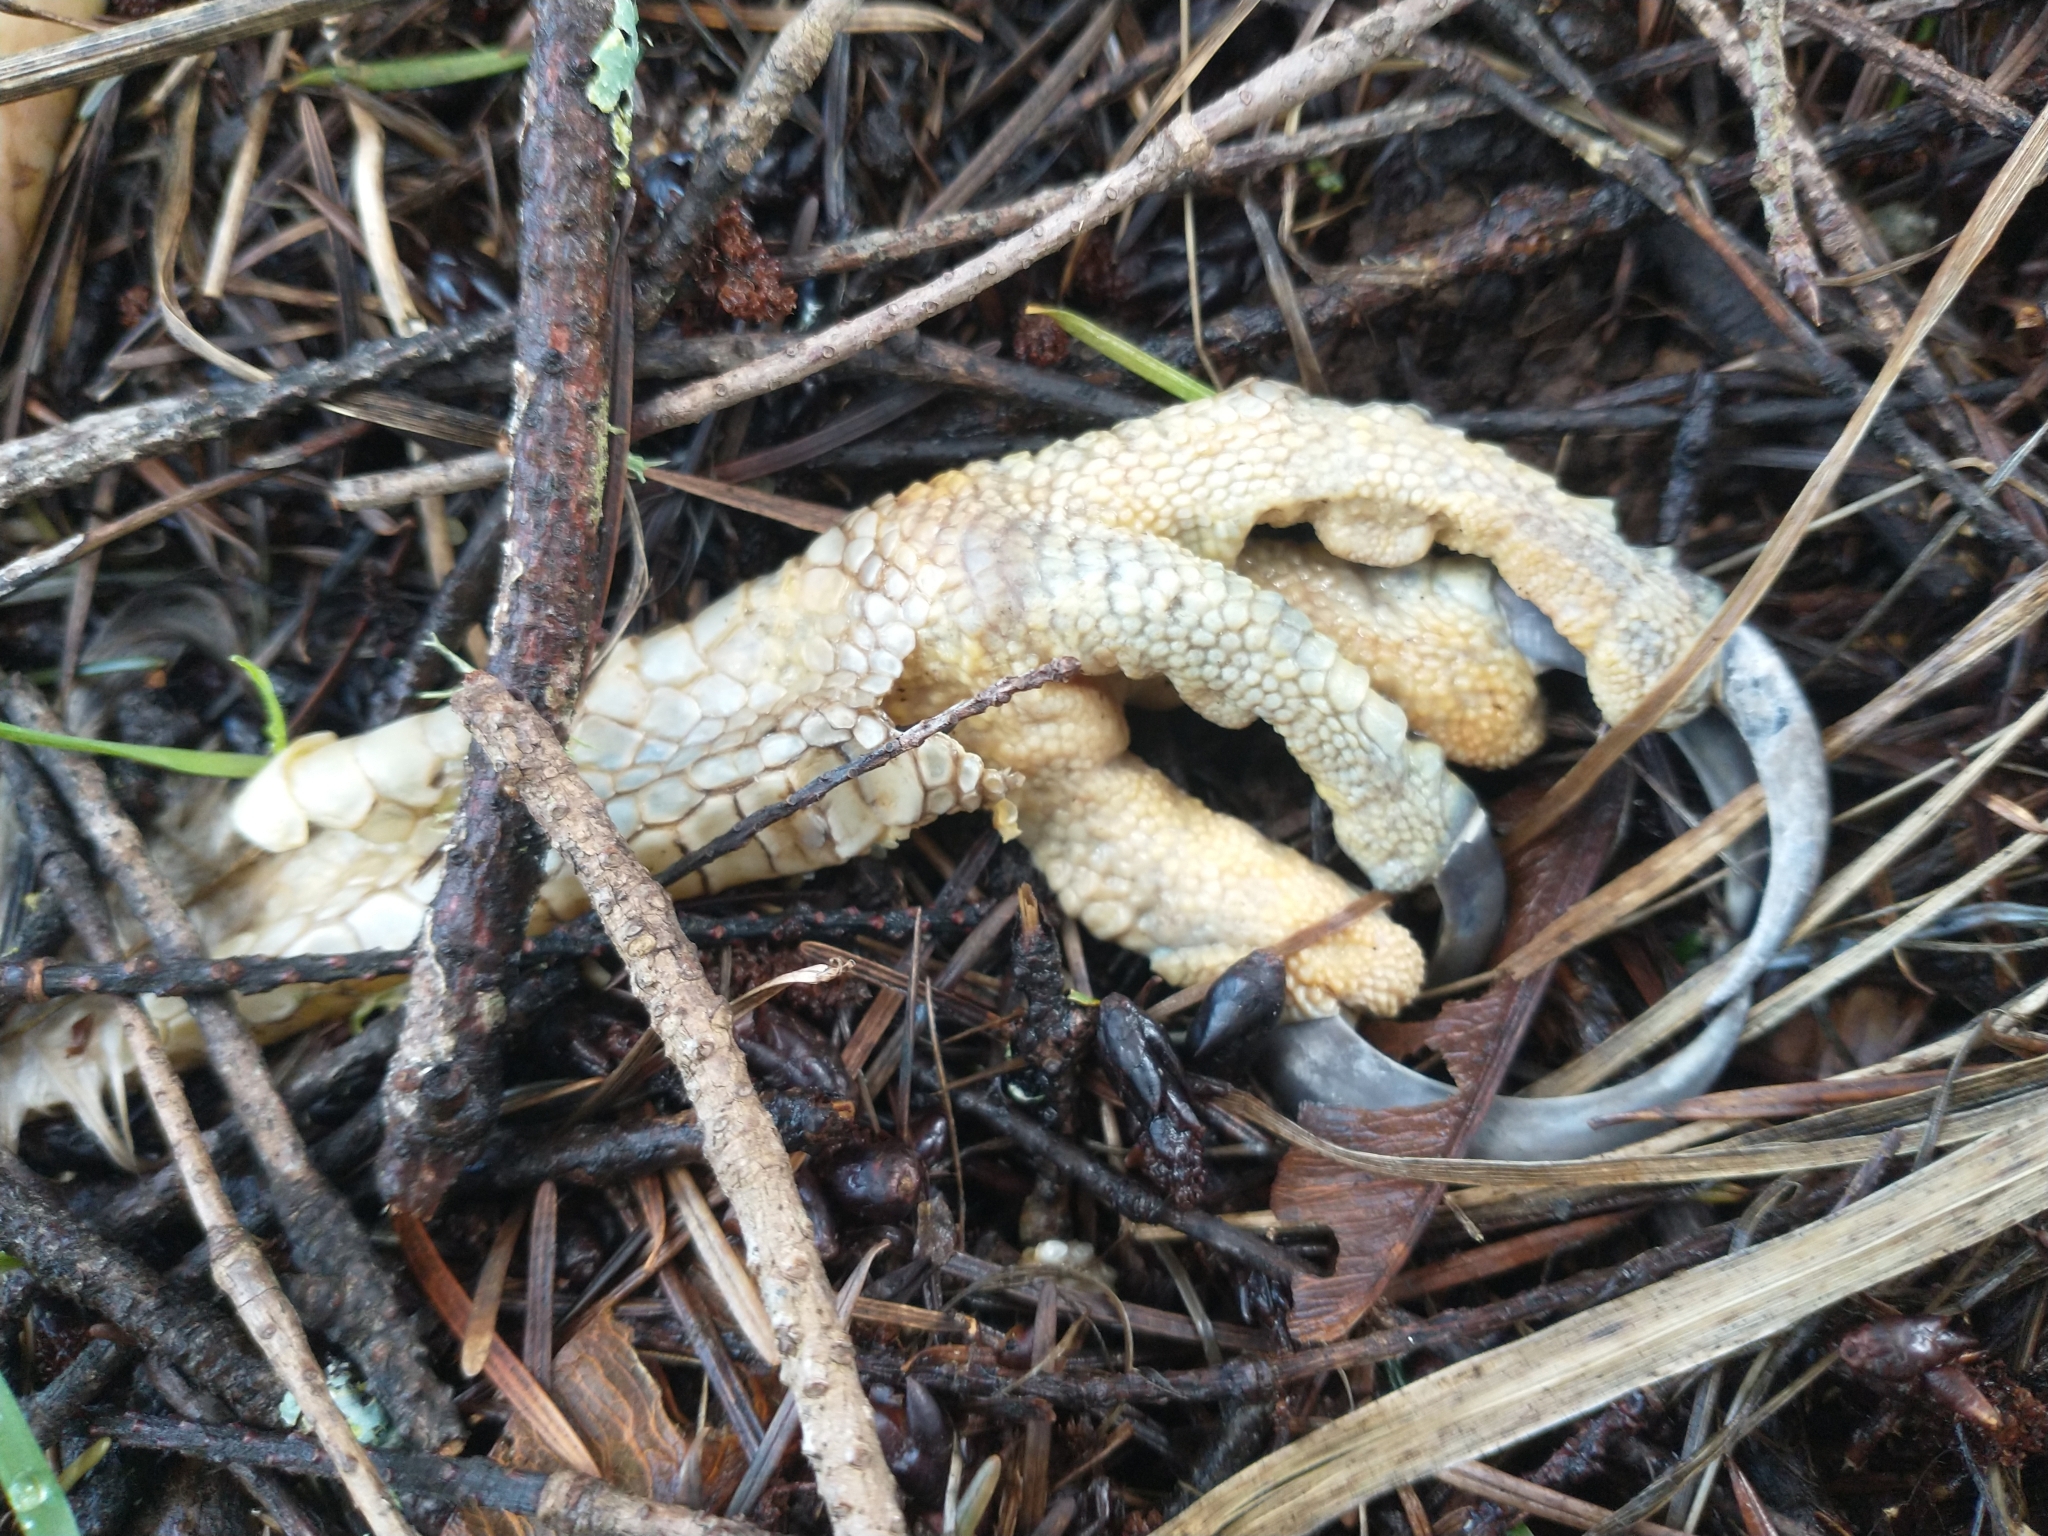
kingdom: Animalia
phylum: Chordata
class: Aves
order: Accipitriformes
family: Accipitridae
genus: Buteo
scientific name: Buteo jamaicensis
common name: Red-tailed hawk
